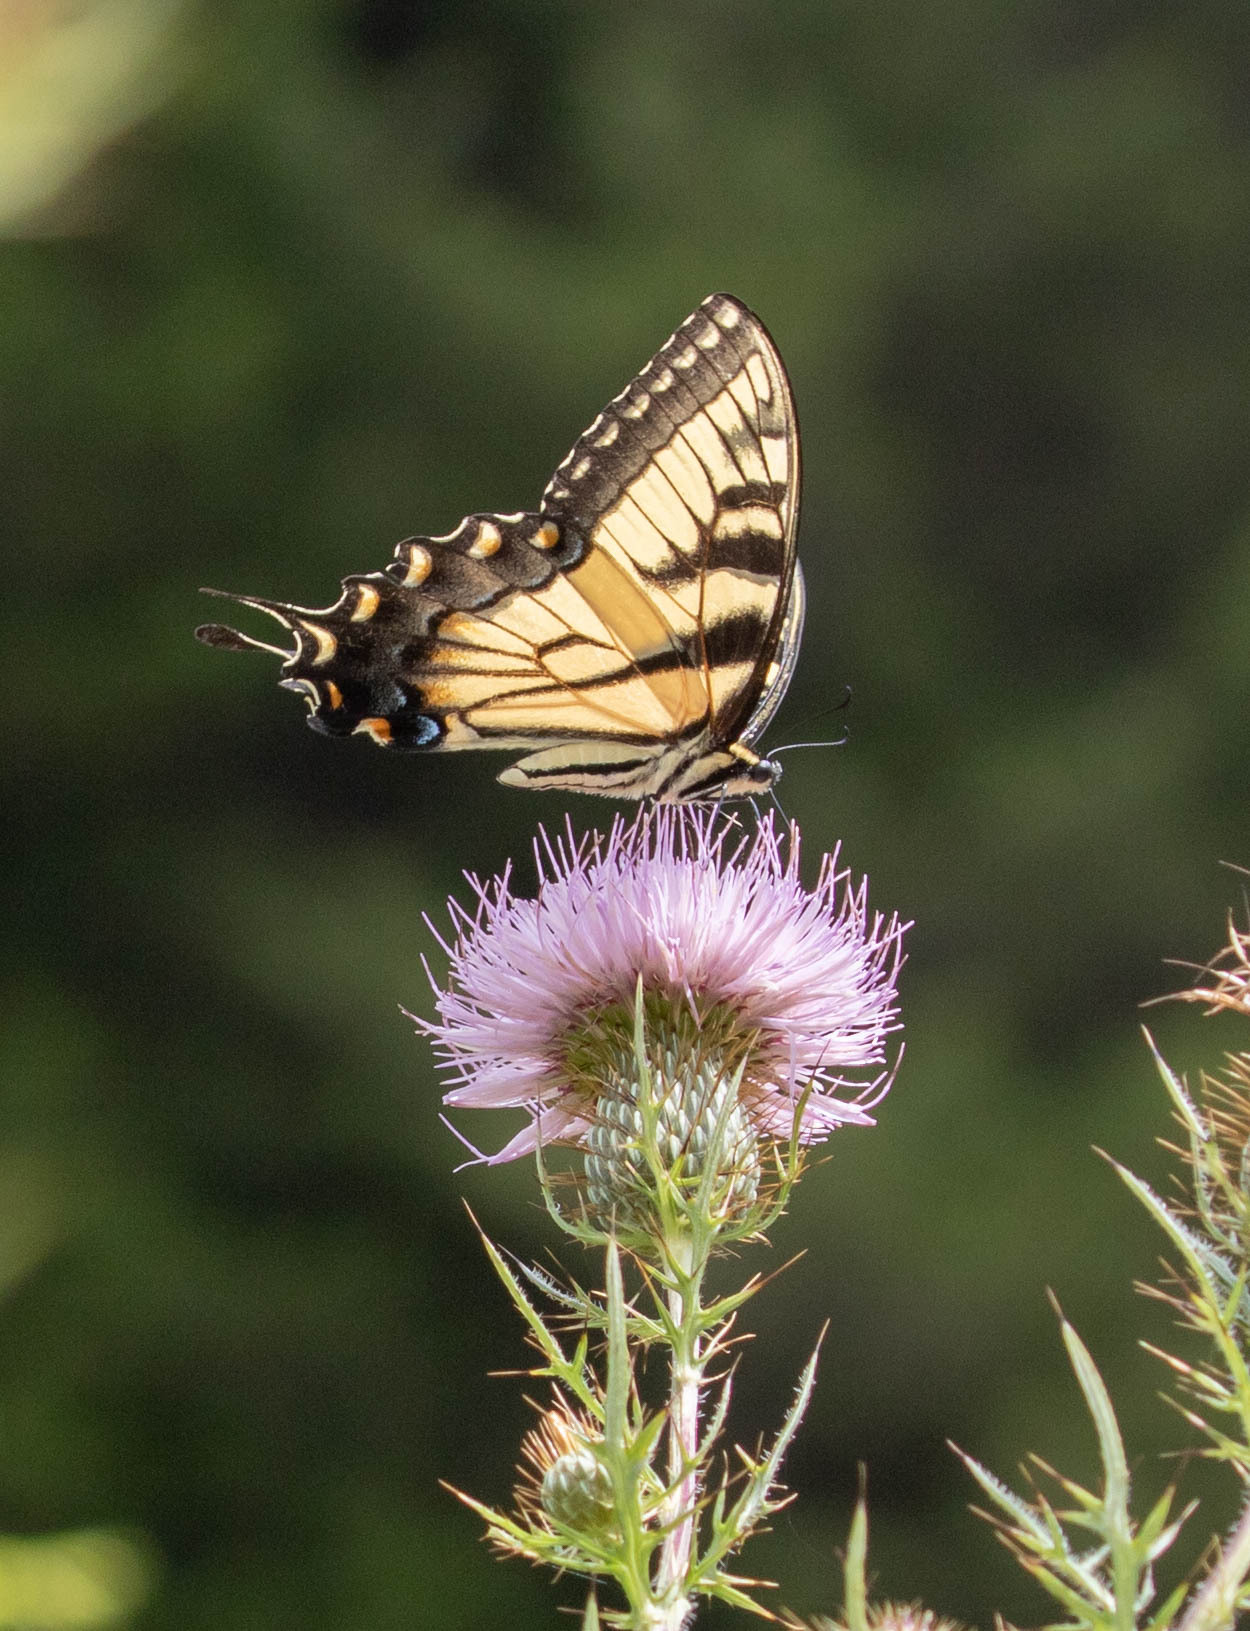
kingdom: Animalia
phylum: Arthropoda
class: Insecta
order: Lepidoptera
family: Papilionidae
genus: Papilio
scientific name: Papilio glaucus
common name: Tiger swallowtail
